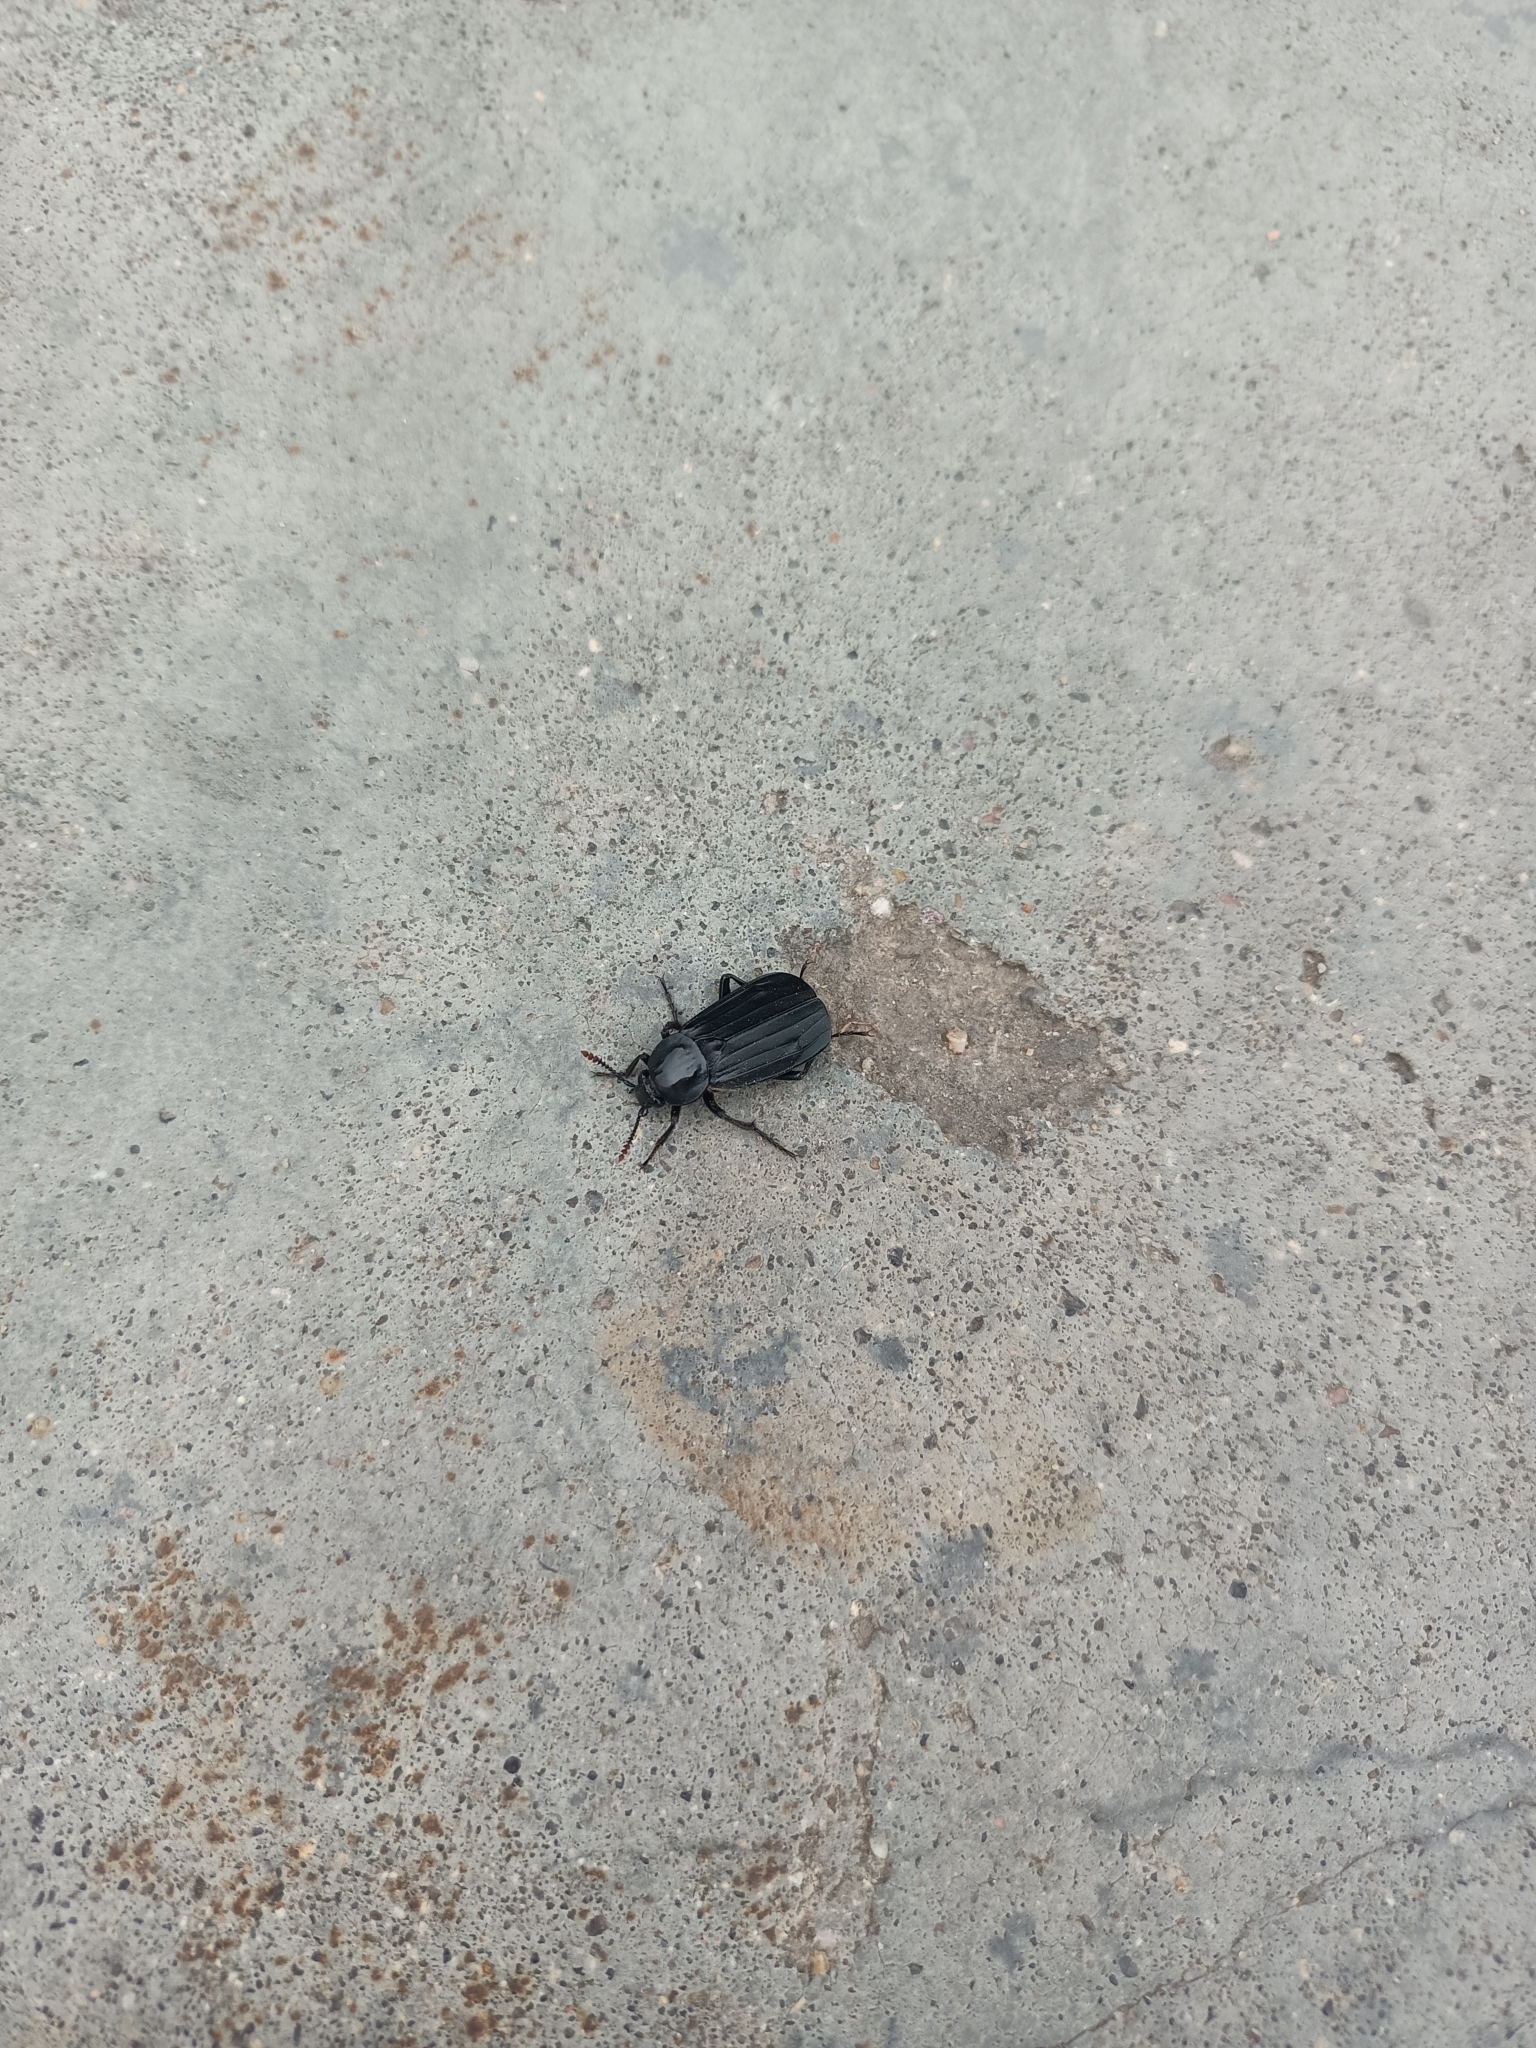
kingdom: Animalia
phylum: Arthropoda
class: Insecta
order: Coleoptera
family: Staphylinidae
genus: Necrodes
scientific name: Necrodes littoralis
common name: Shore sexton beetle
